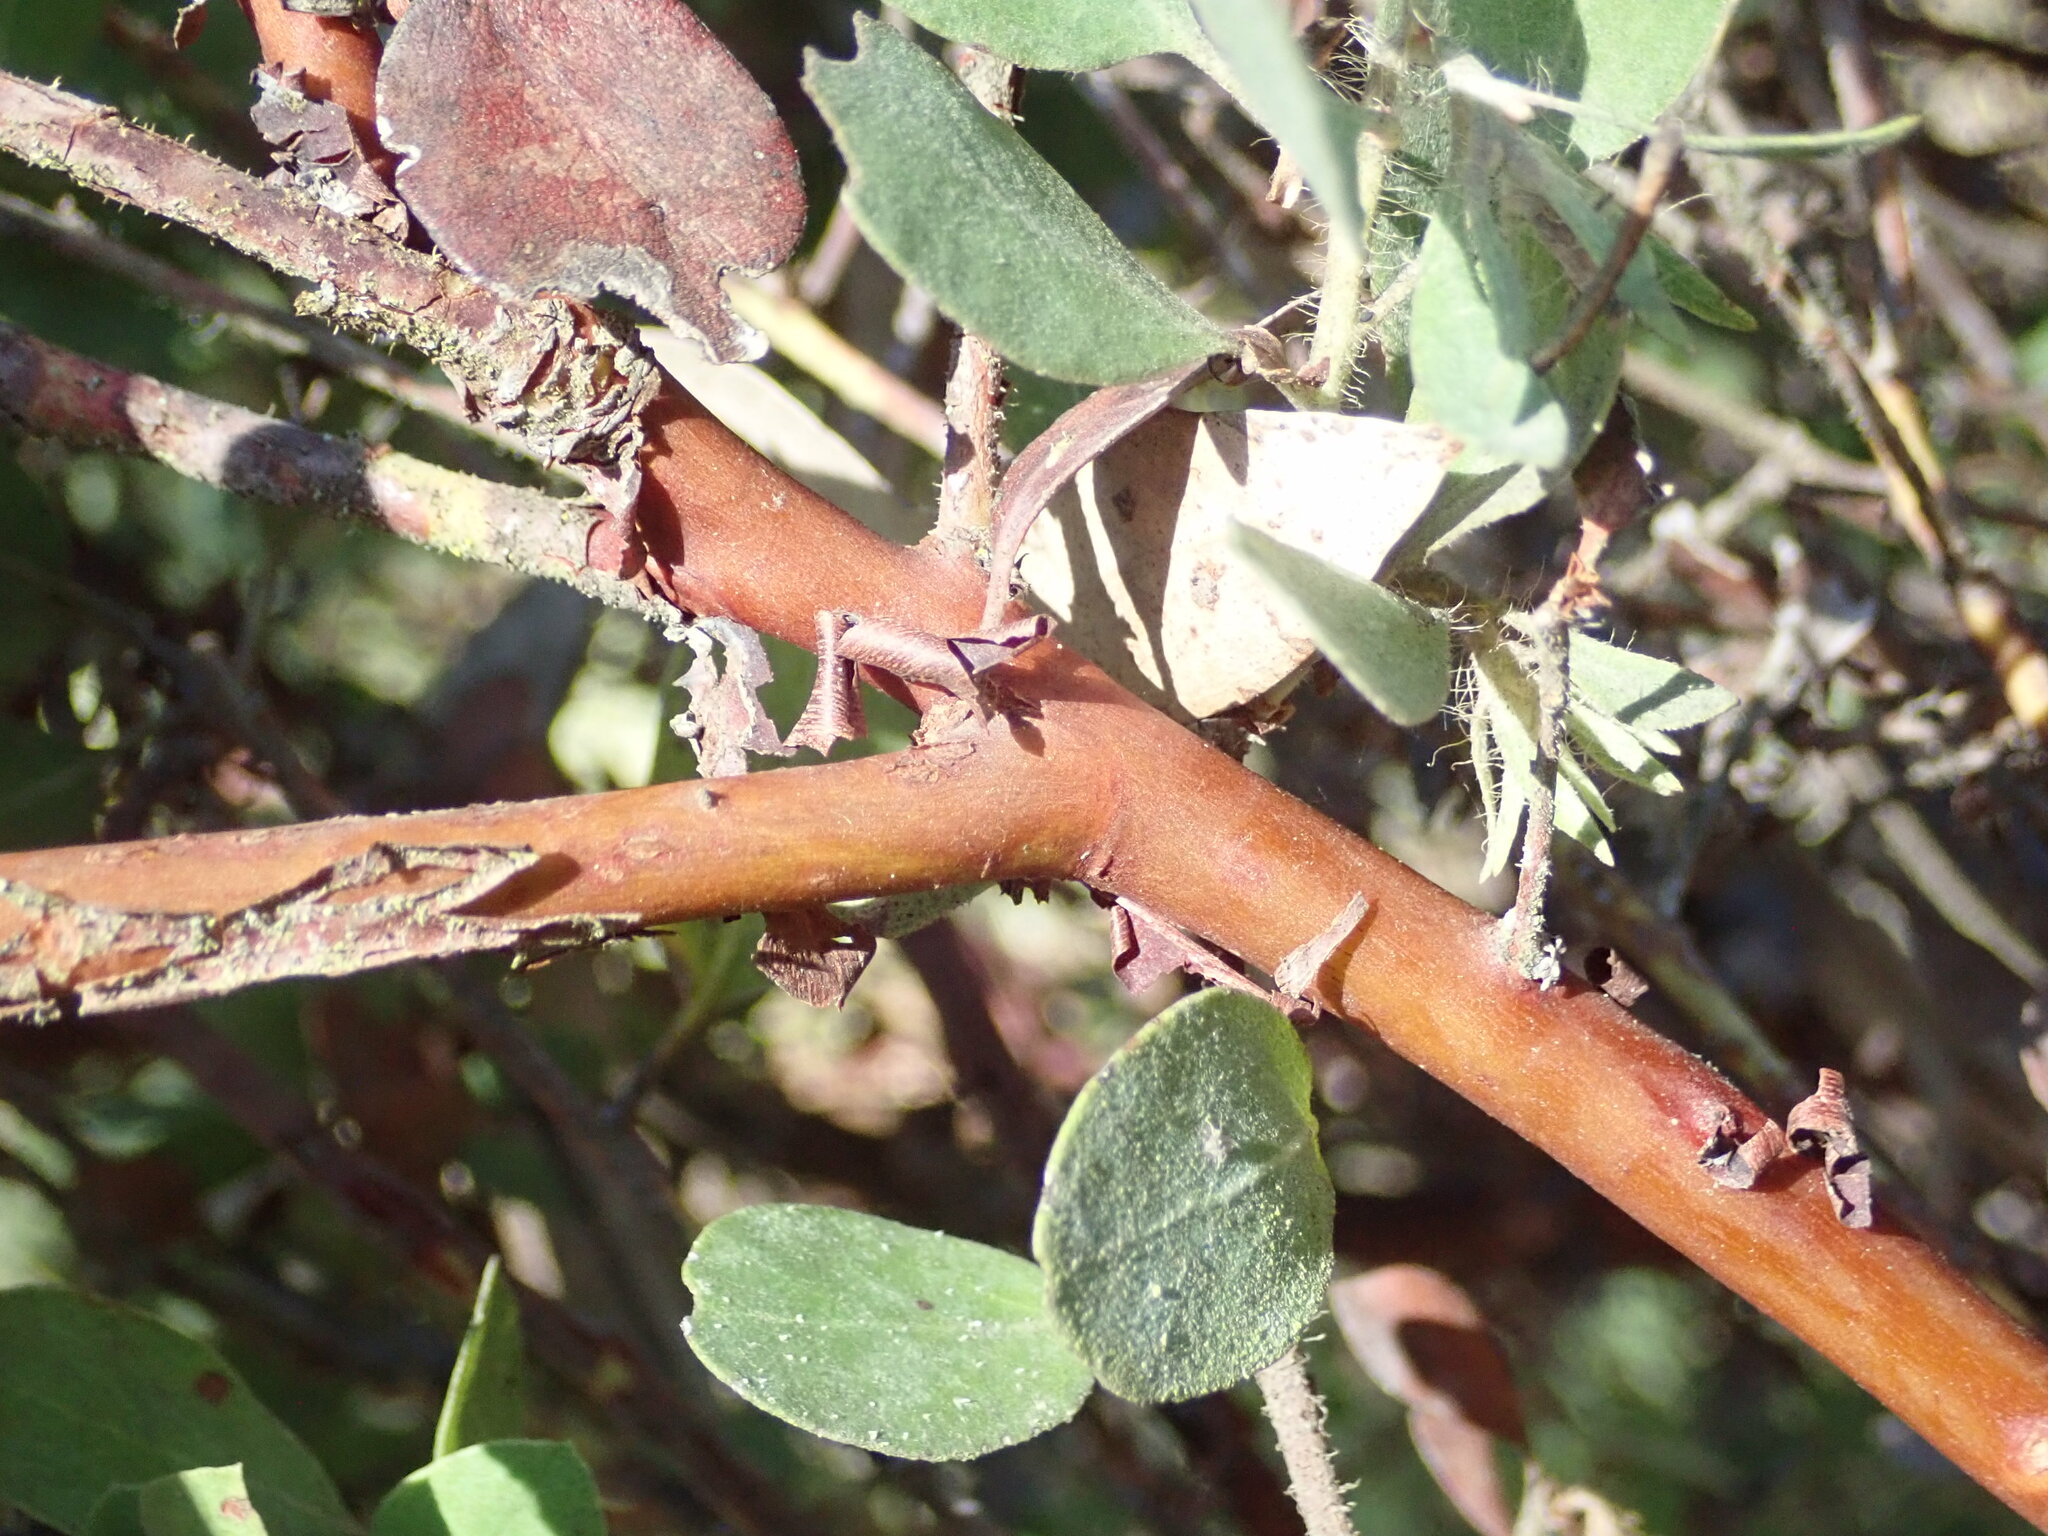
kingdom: Plantae
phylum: Tracheophyta
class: Magnoliopsida
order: Ericales
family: Ericaceae
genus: Arctostaphylos
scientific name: Arctostaphylos pilosula
